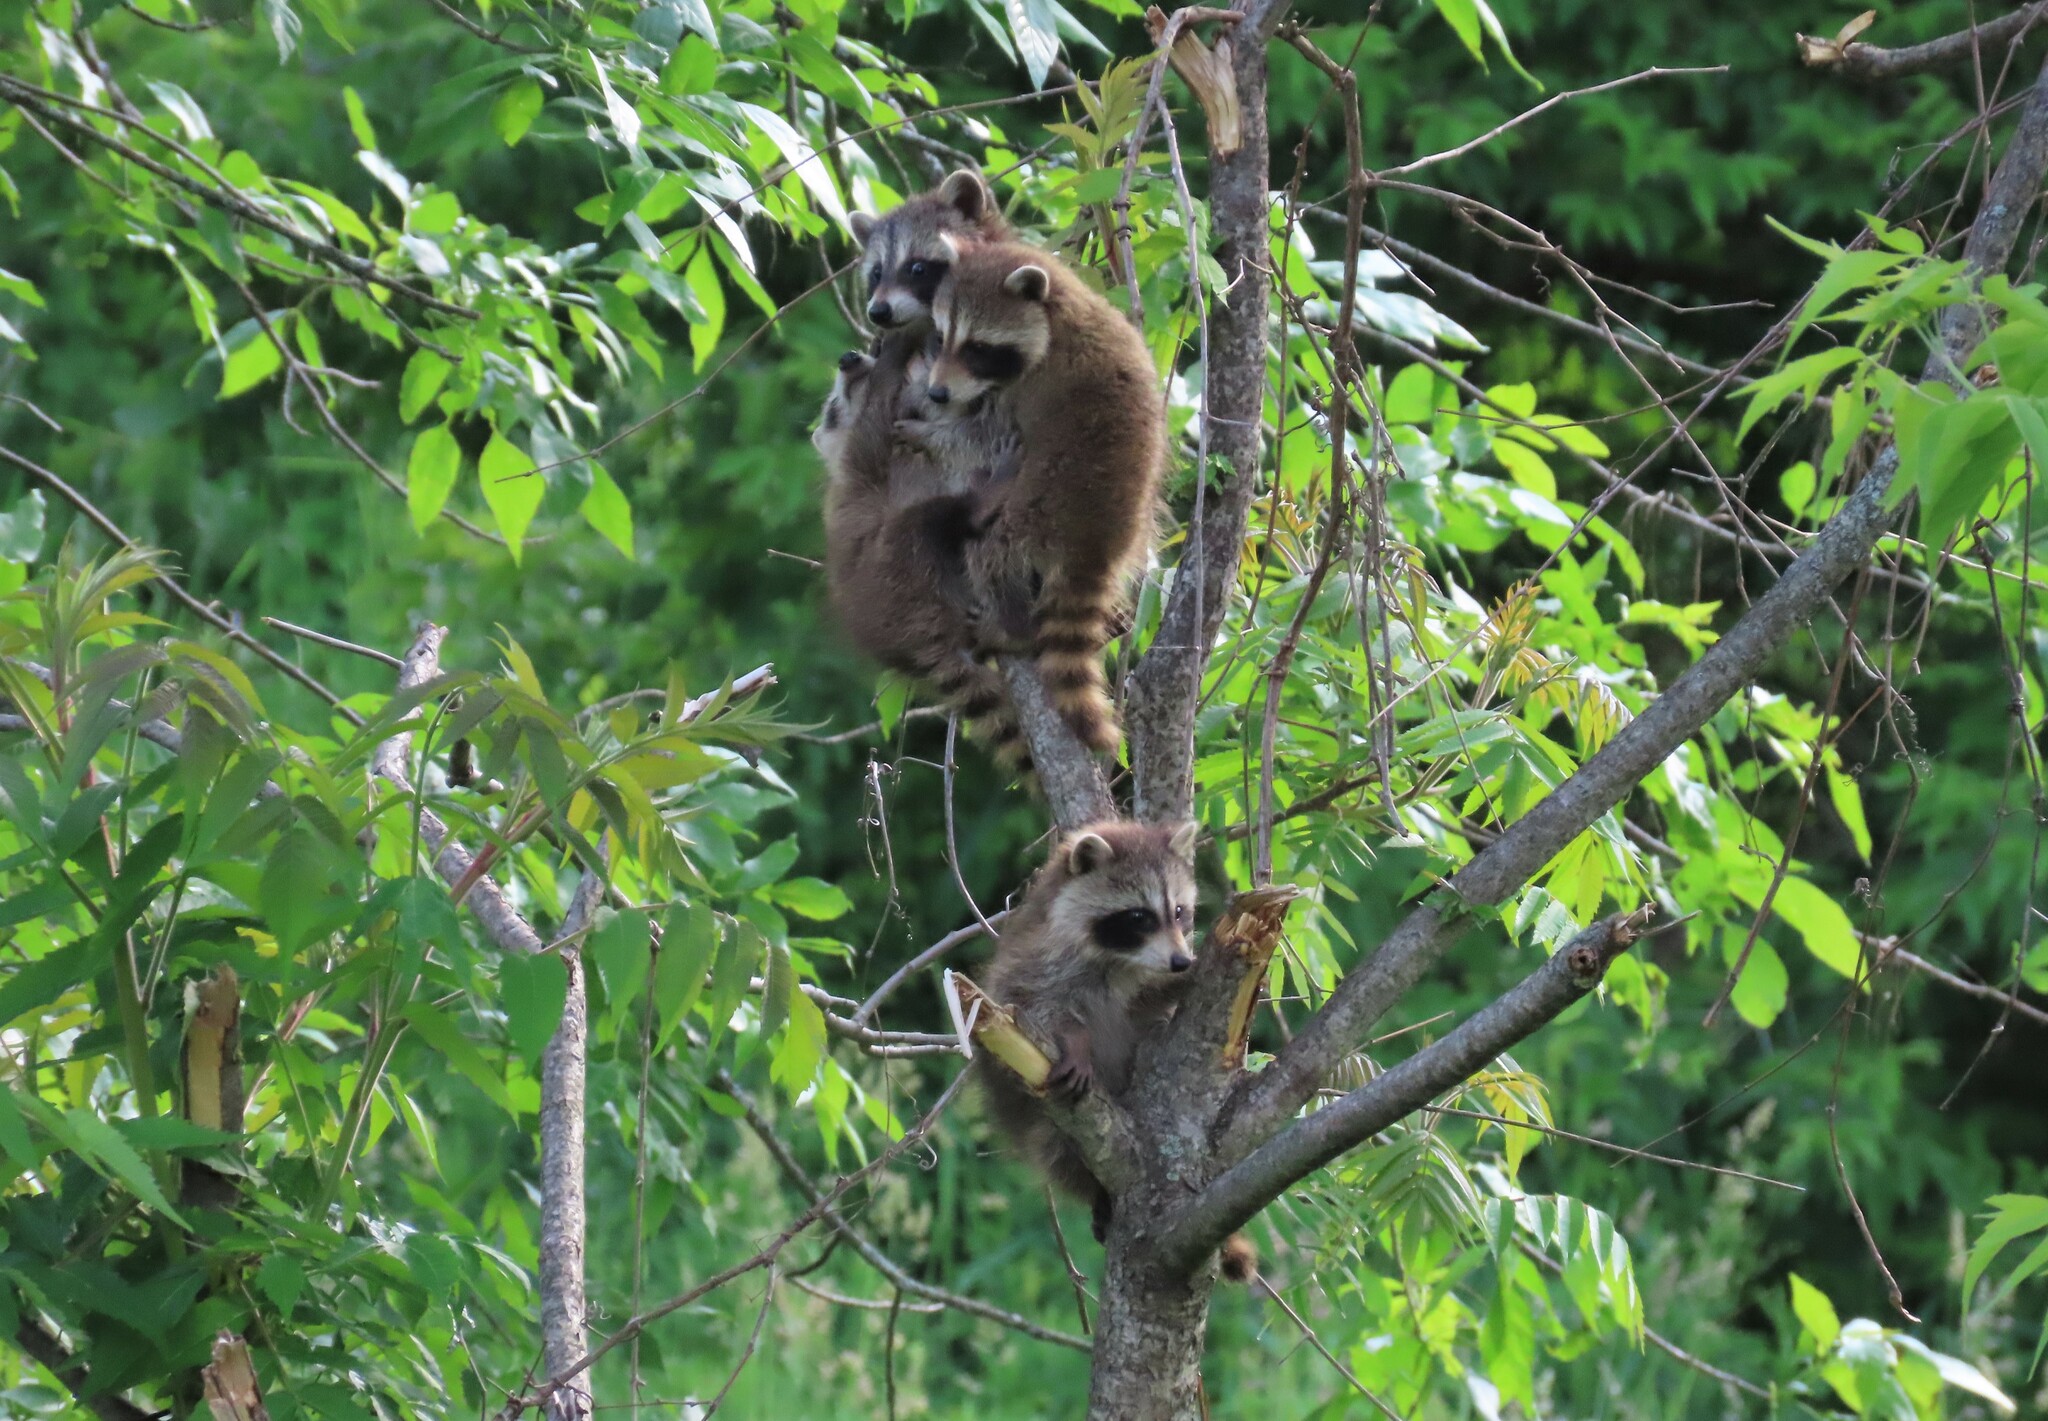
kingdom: Animalia
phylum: Chordata
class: Mammalia
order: Carnivora
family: Procyonidae
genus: Procyon
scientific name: Procyon lotor
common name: Raccoon
